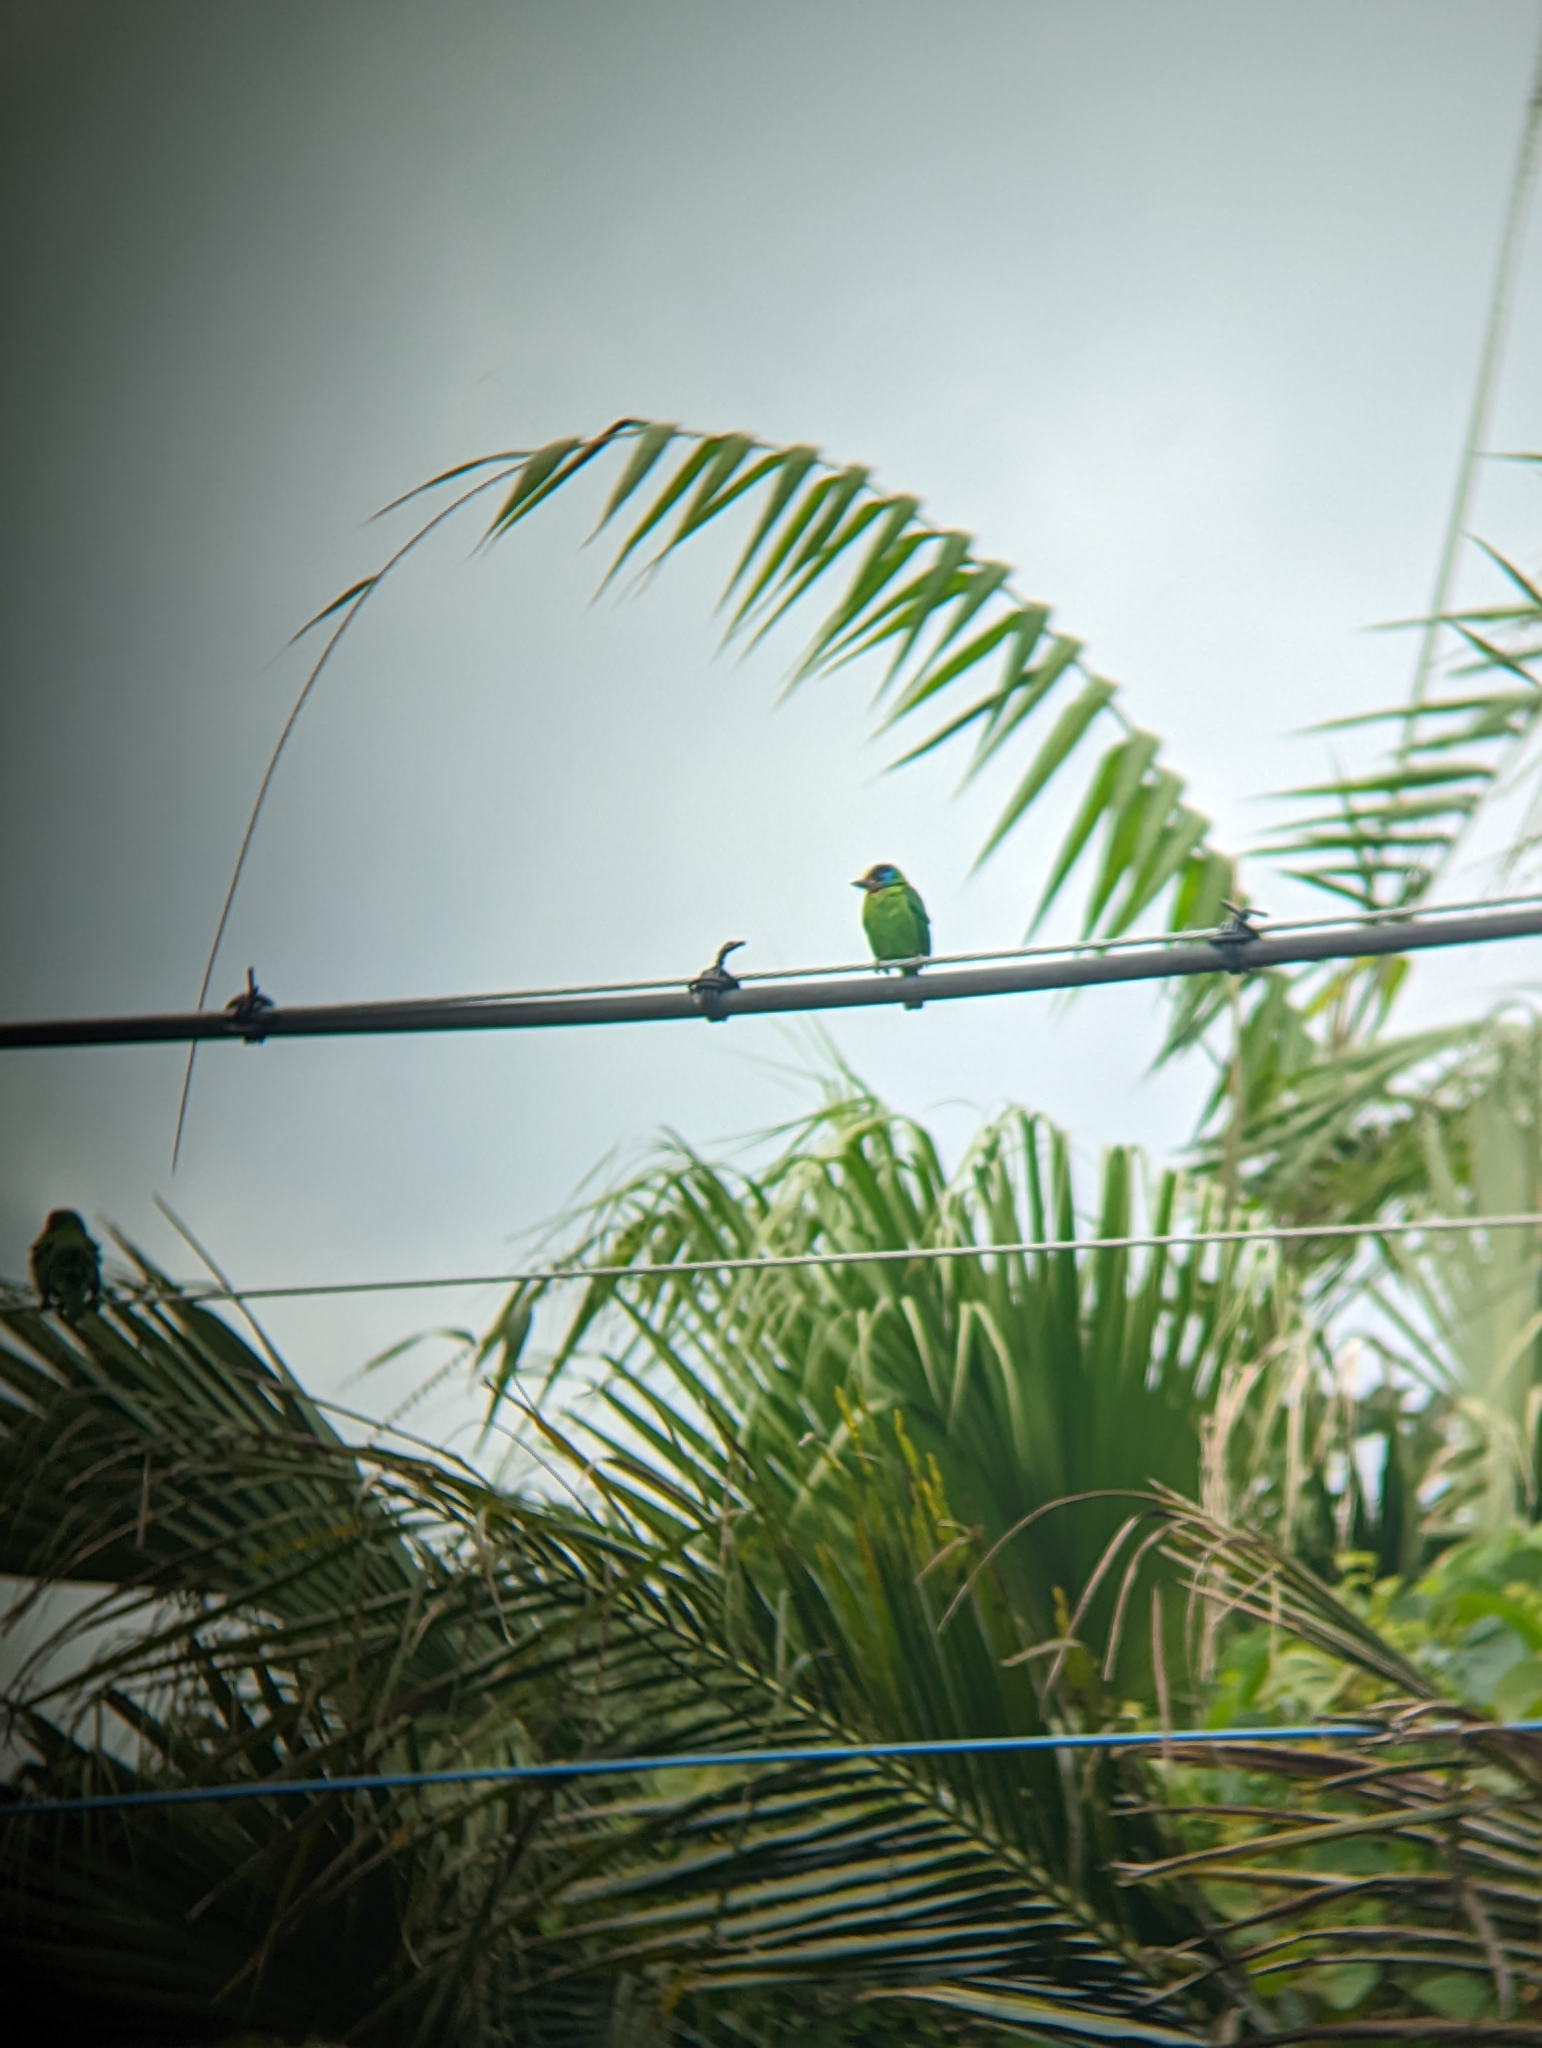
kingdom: Animalia
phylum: Chordata
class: Aves
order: Piciformes
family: Megalaimidae
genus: Psilopogon
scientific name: Psilopogon nuchalis
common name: Taiwan barbet
